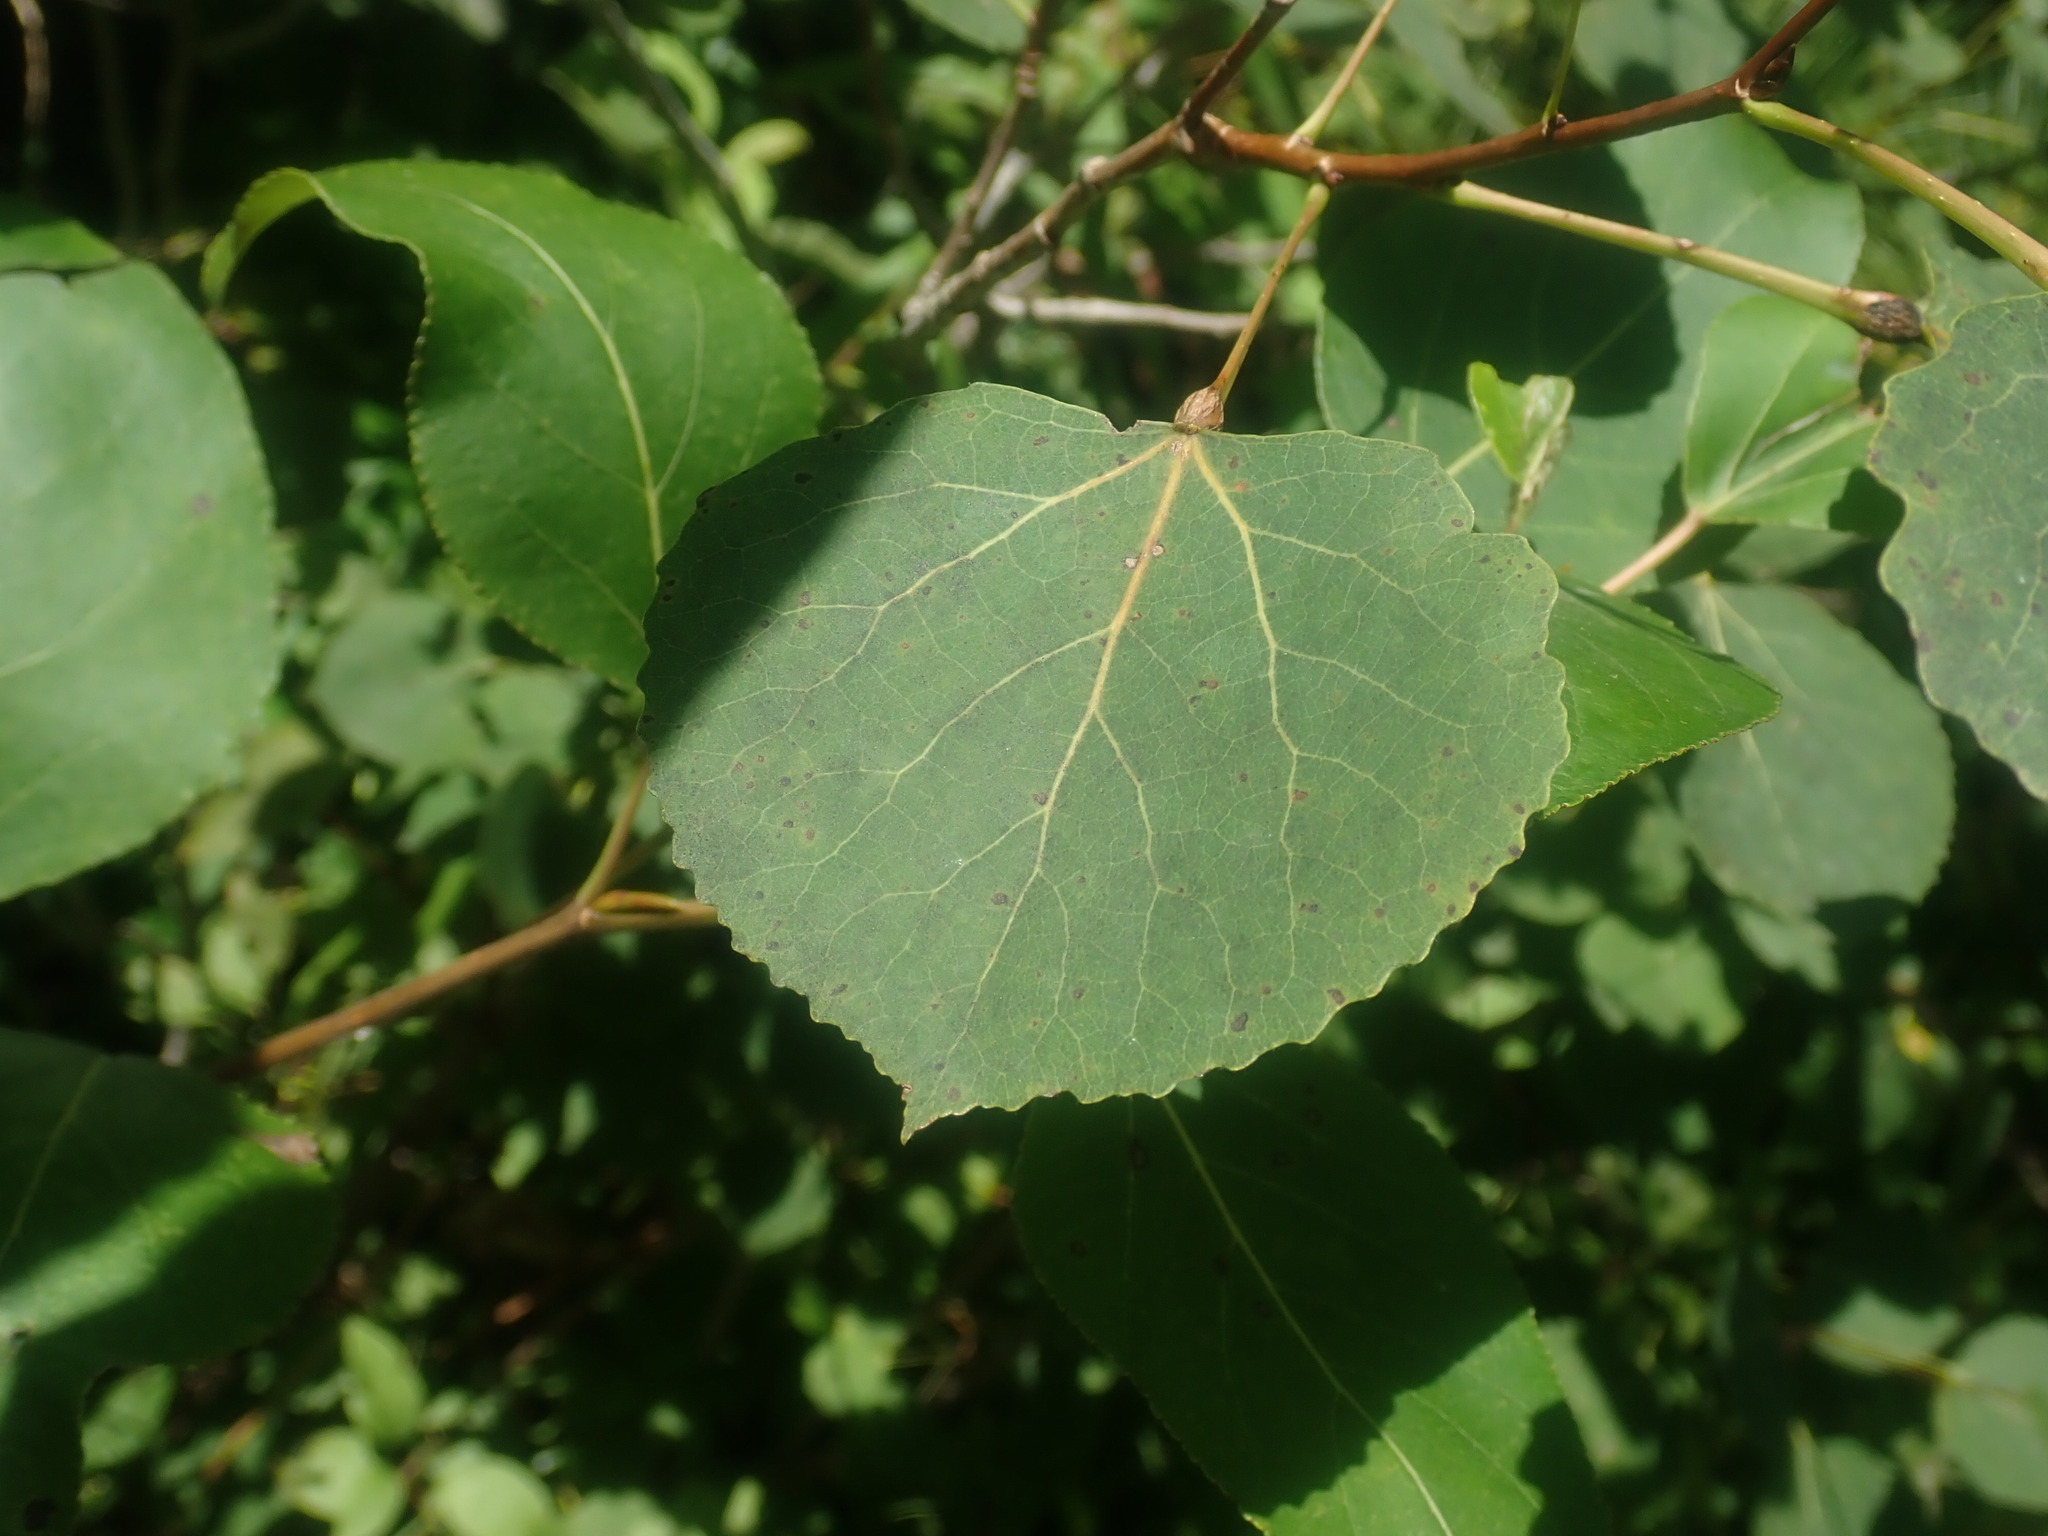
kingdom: Plantae
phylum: Tracheophyta
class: Magnoliopsida
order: Malpighiales
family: Salicaceae
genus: Populus
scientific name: Populus tremuloides
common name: Quaking aspen
